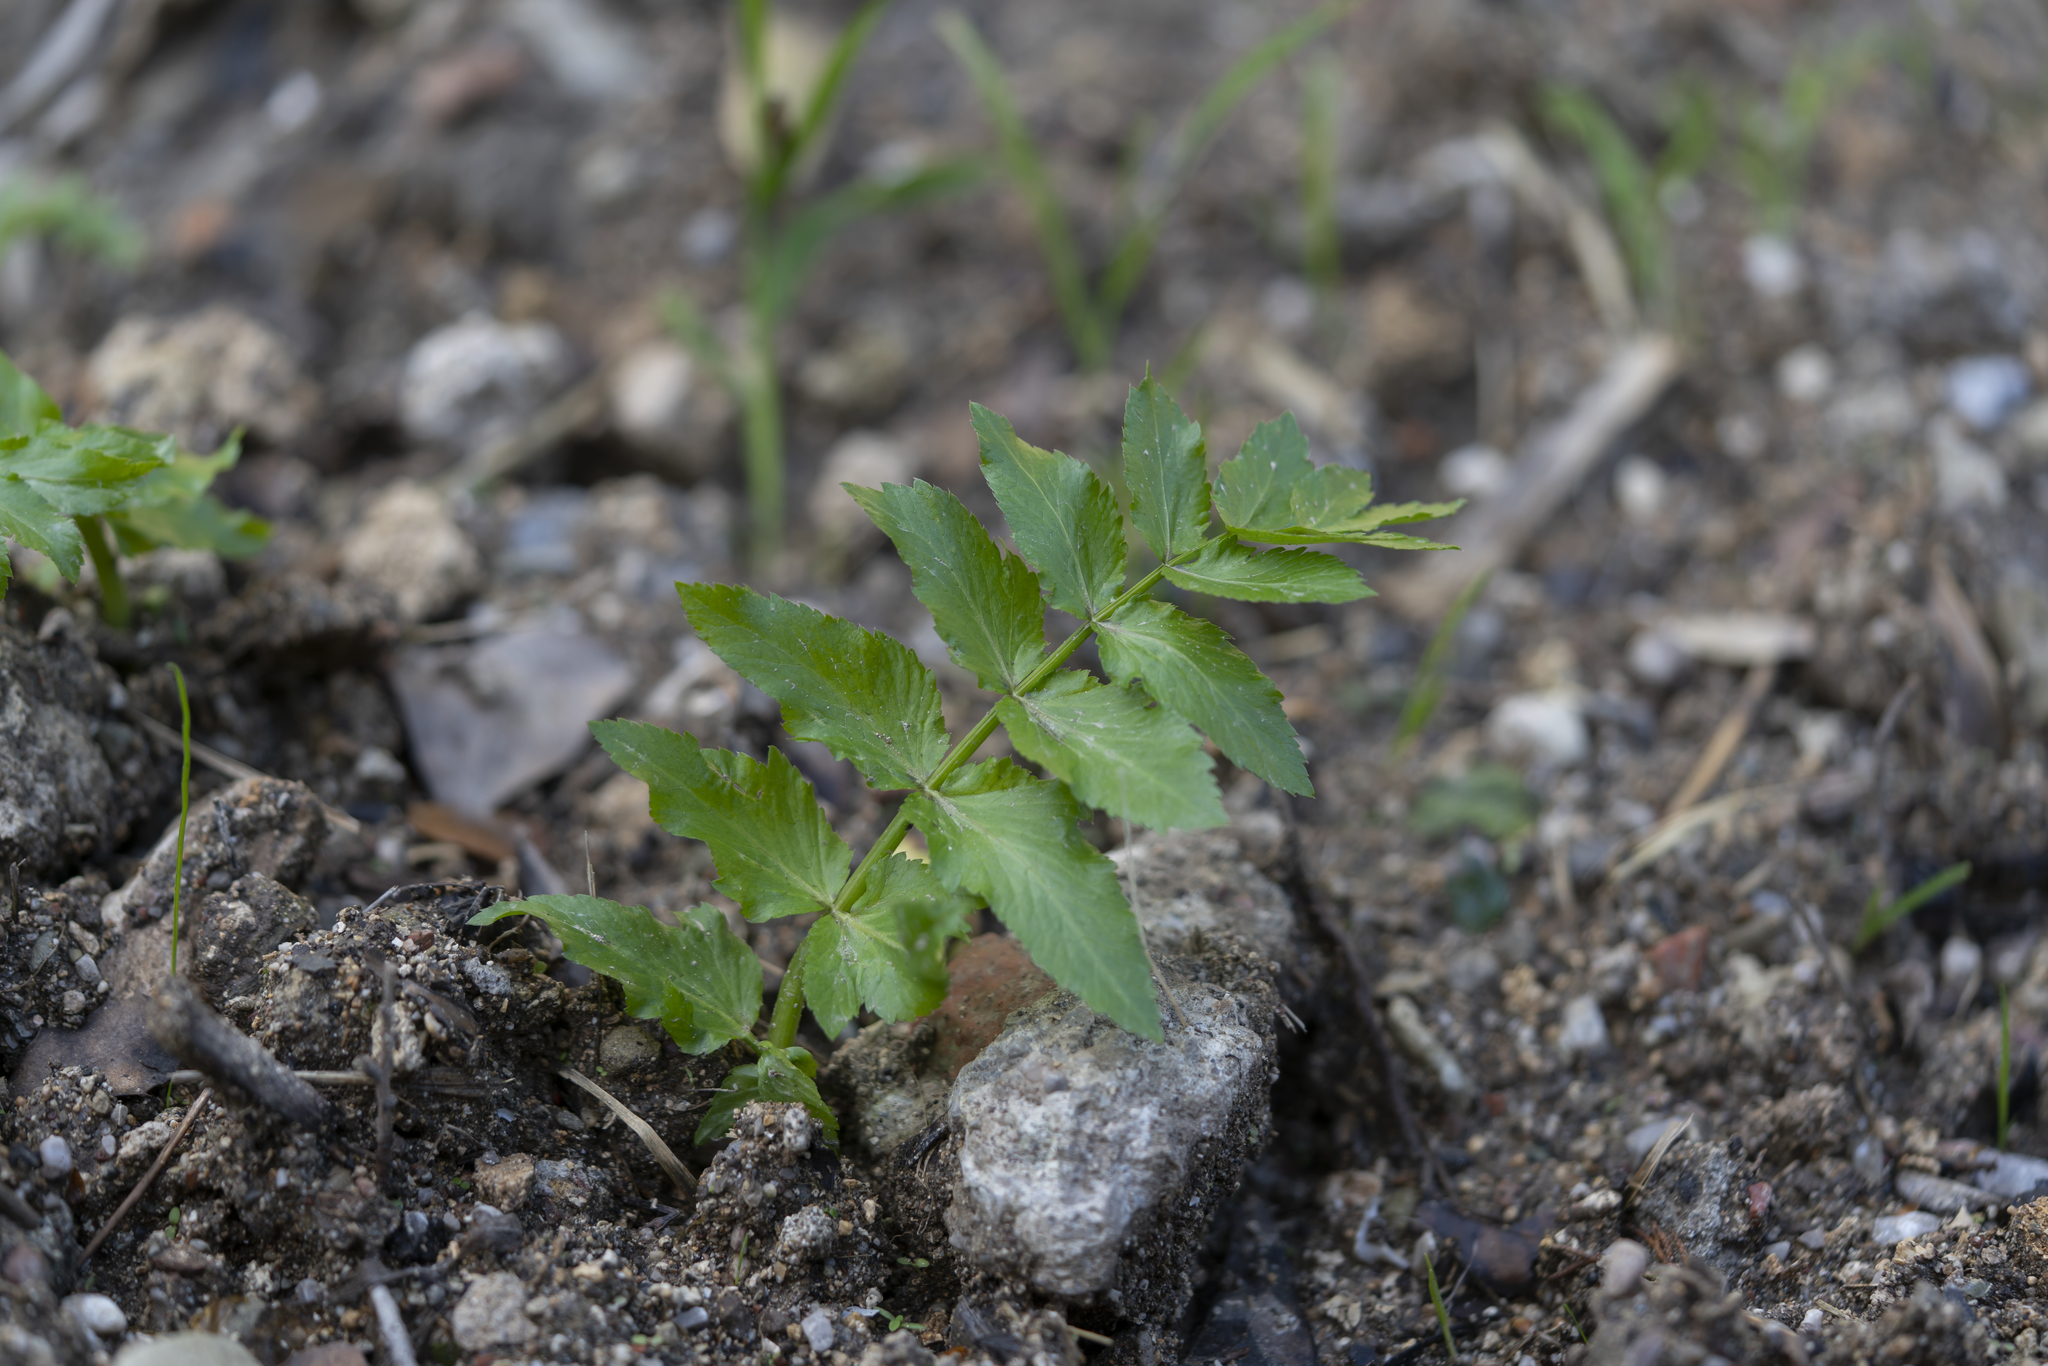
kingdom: Plantae
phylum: Tracheophyta
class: Magnoliopsida
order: Apiales
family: Apiaceae
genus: Helosciadium
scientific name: Helosciadium nodiflorum
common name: Fool's-watercress
